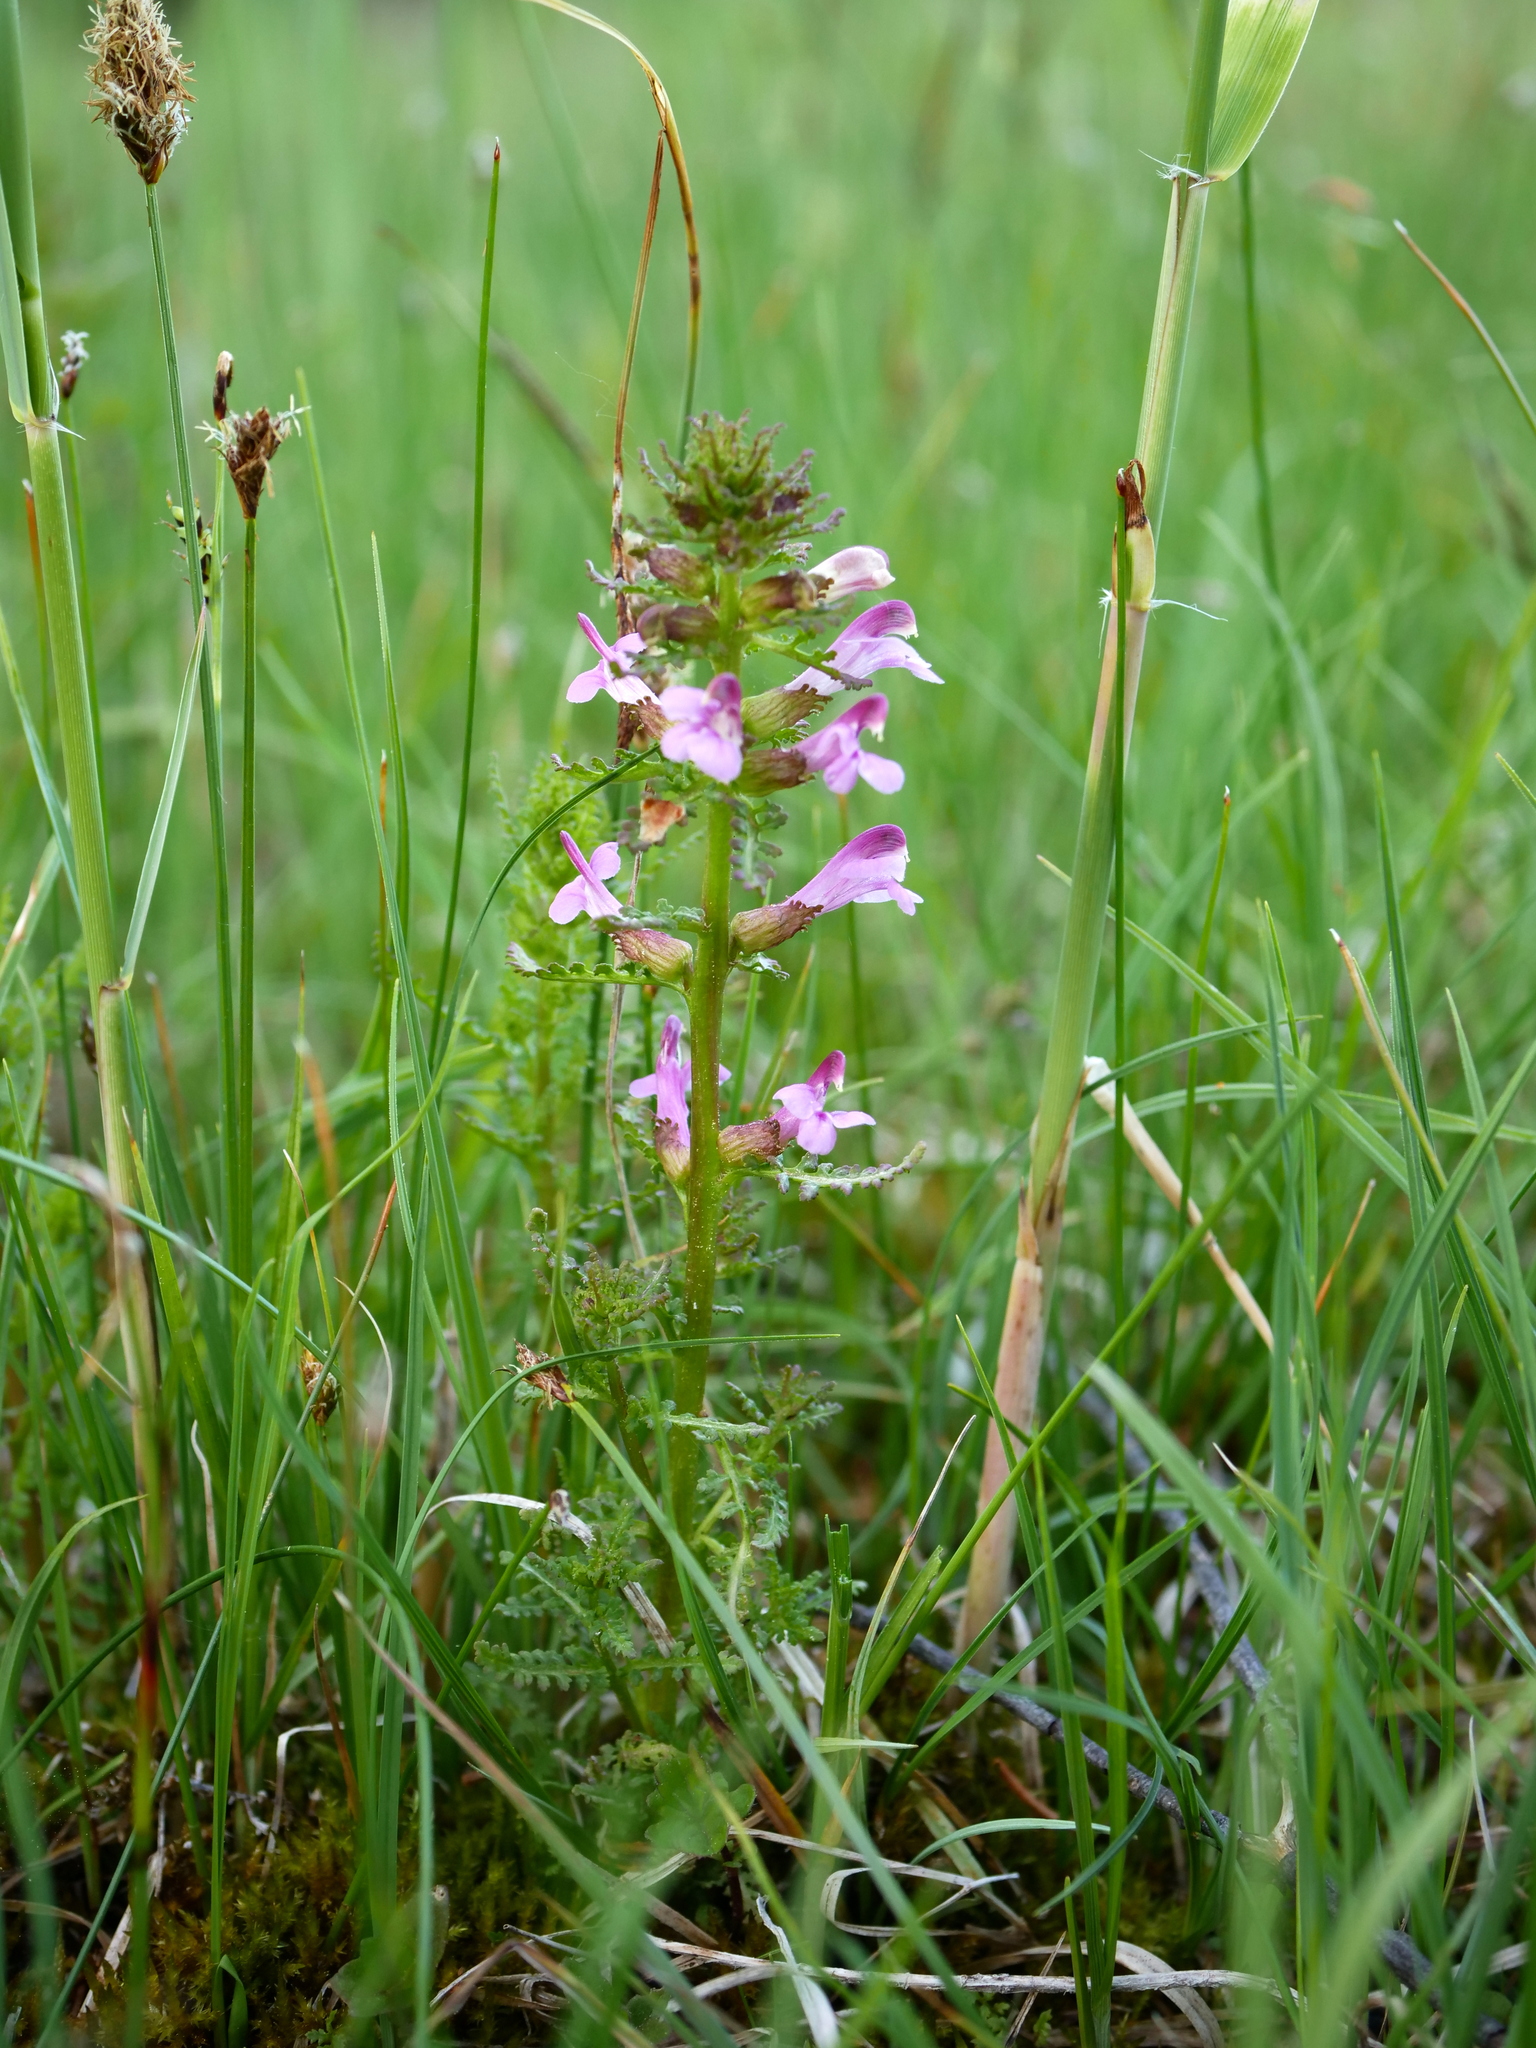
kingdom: Plantae
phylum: Tracheophyta
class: Magnoliopsida
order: Lamiales
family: Orobanchaceae
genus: Pedicularis
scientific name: Pedicularis palustris
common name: Marsh lousewort
